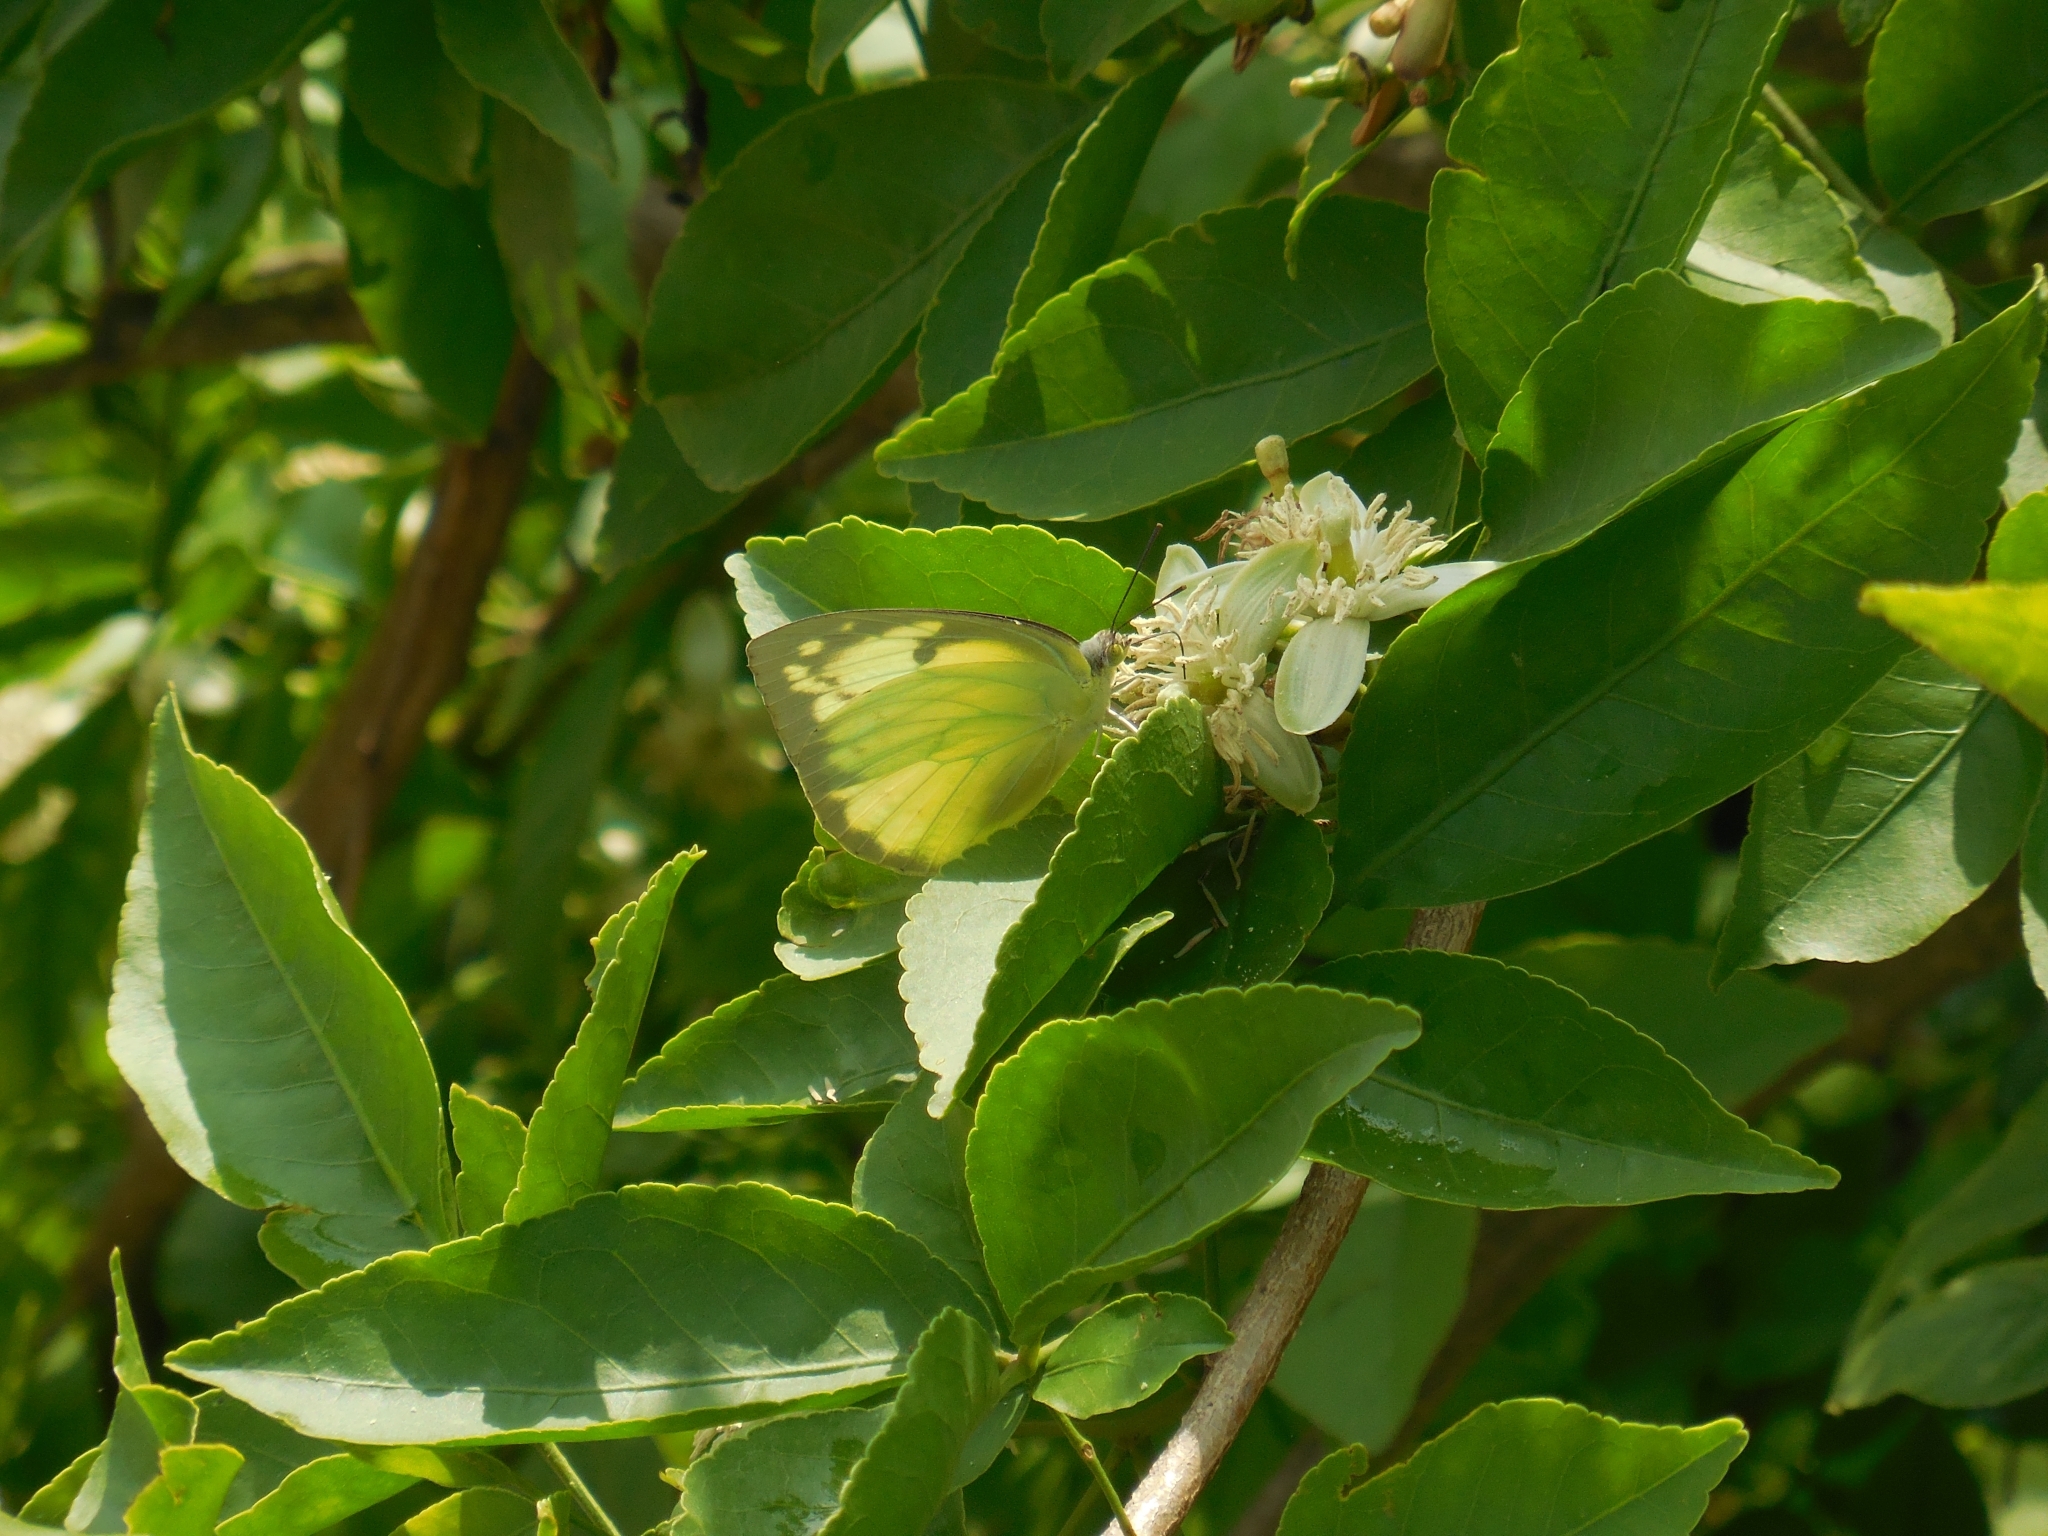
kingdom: Animalia
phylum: Arthropoda
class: Insecta
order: Lepidoptera
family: Pieridae
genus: Catopsilia
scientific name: Catopsilia pomona
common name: Common emigrant
